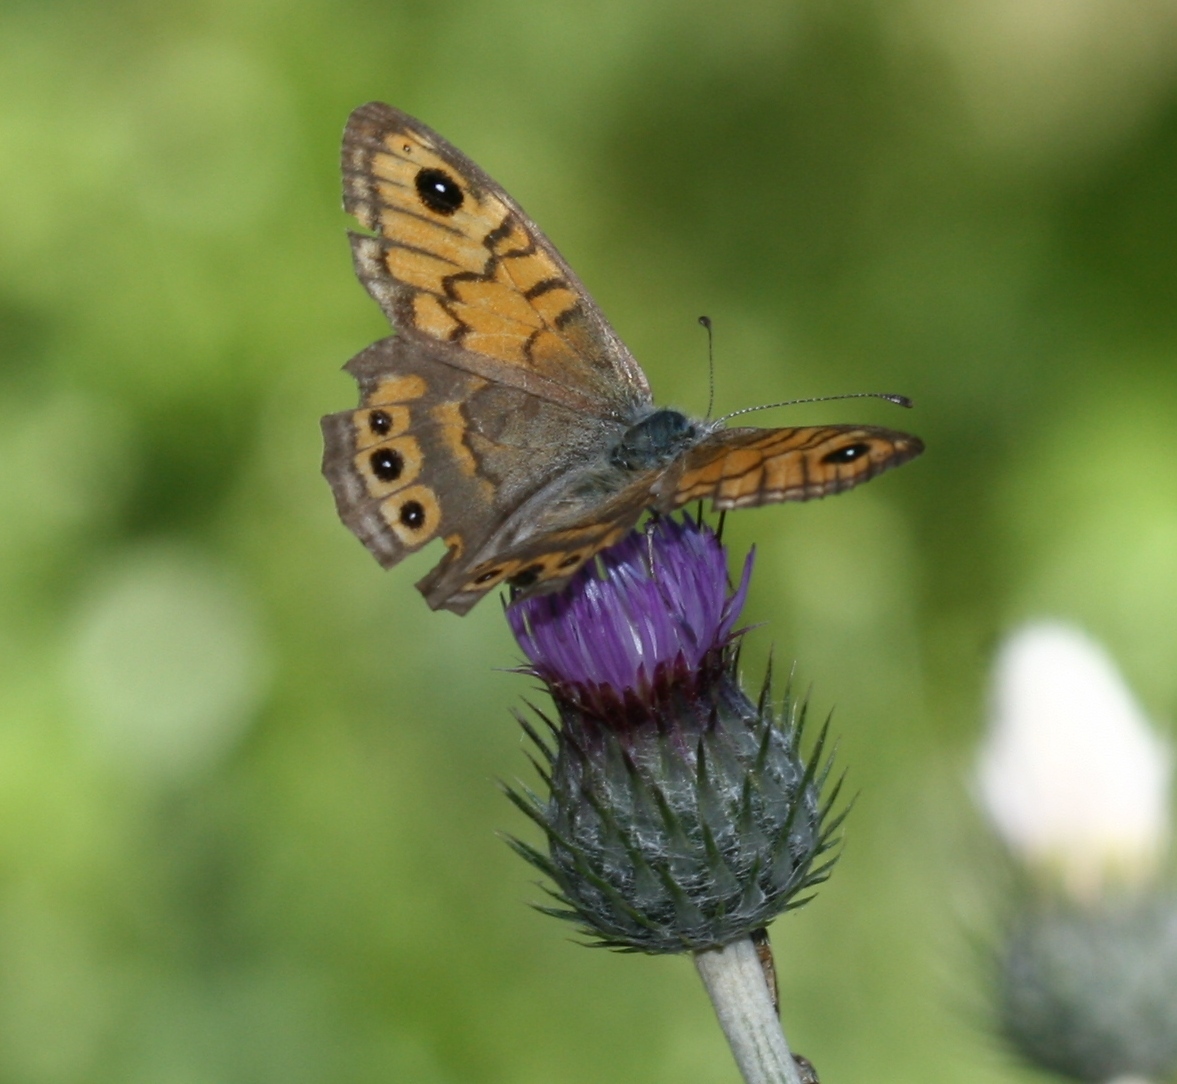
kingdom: Animalia
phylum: Arthropoda
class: Insecta
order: Lepidoptera
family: Nymphalidae
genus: Pararge
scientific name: Pararge Lasiommata megera
